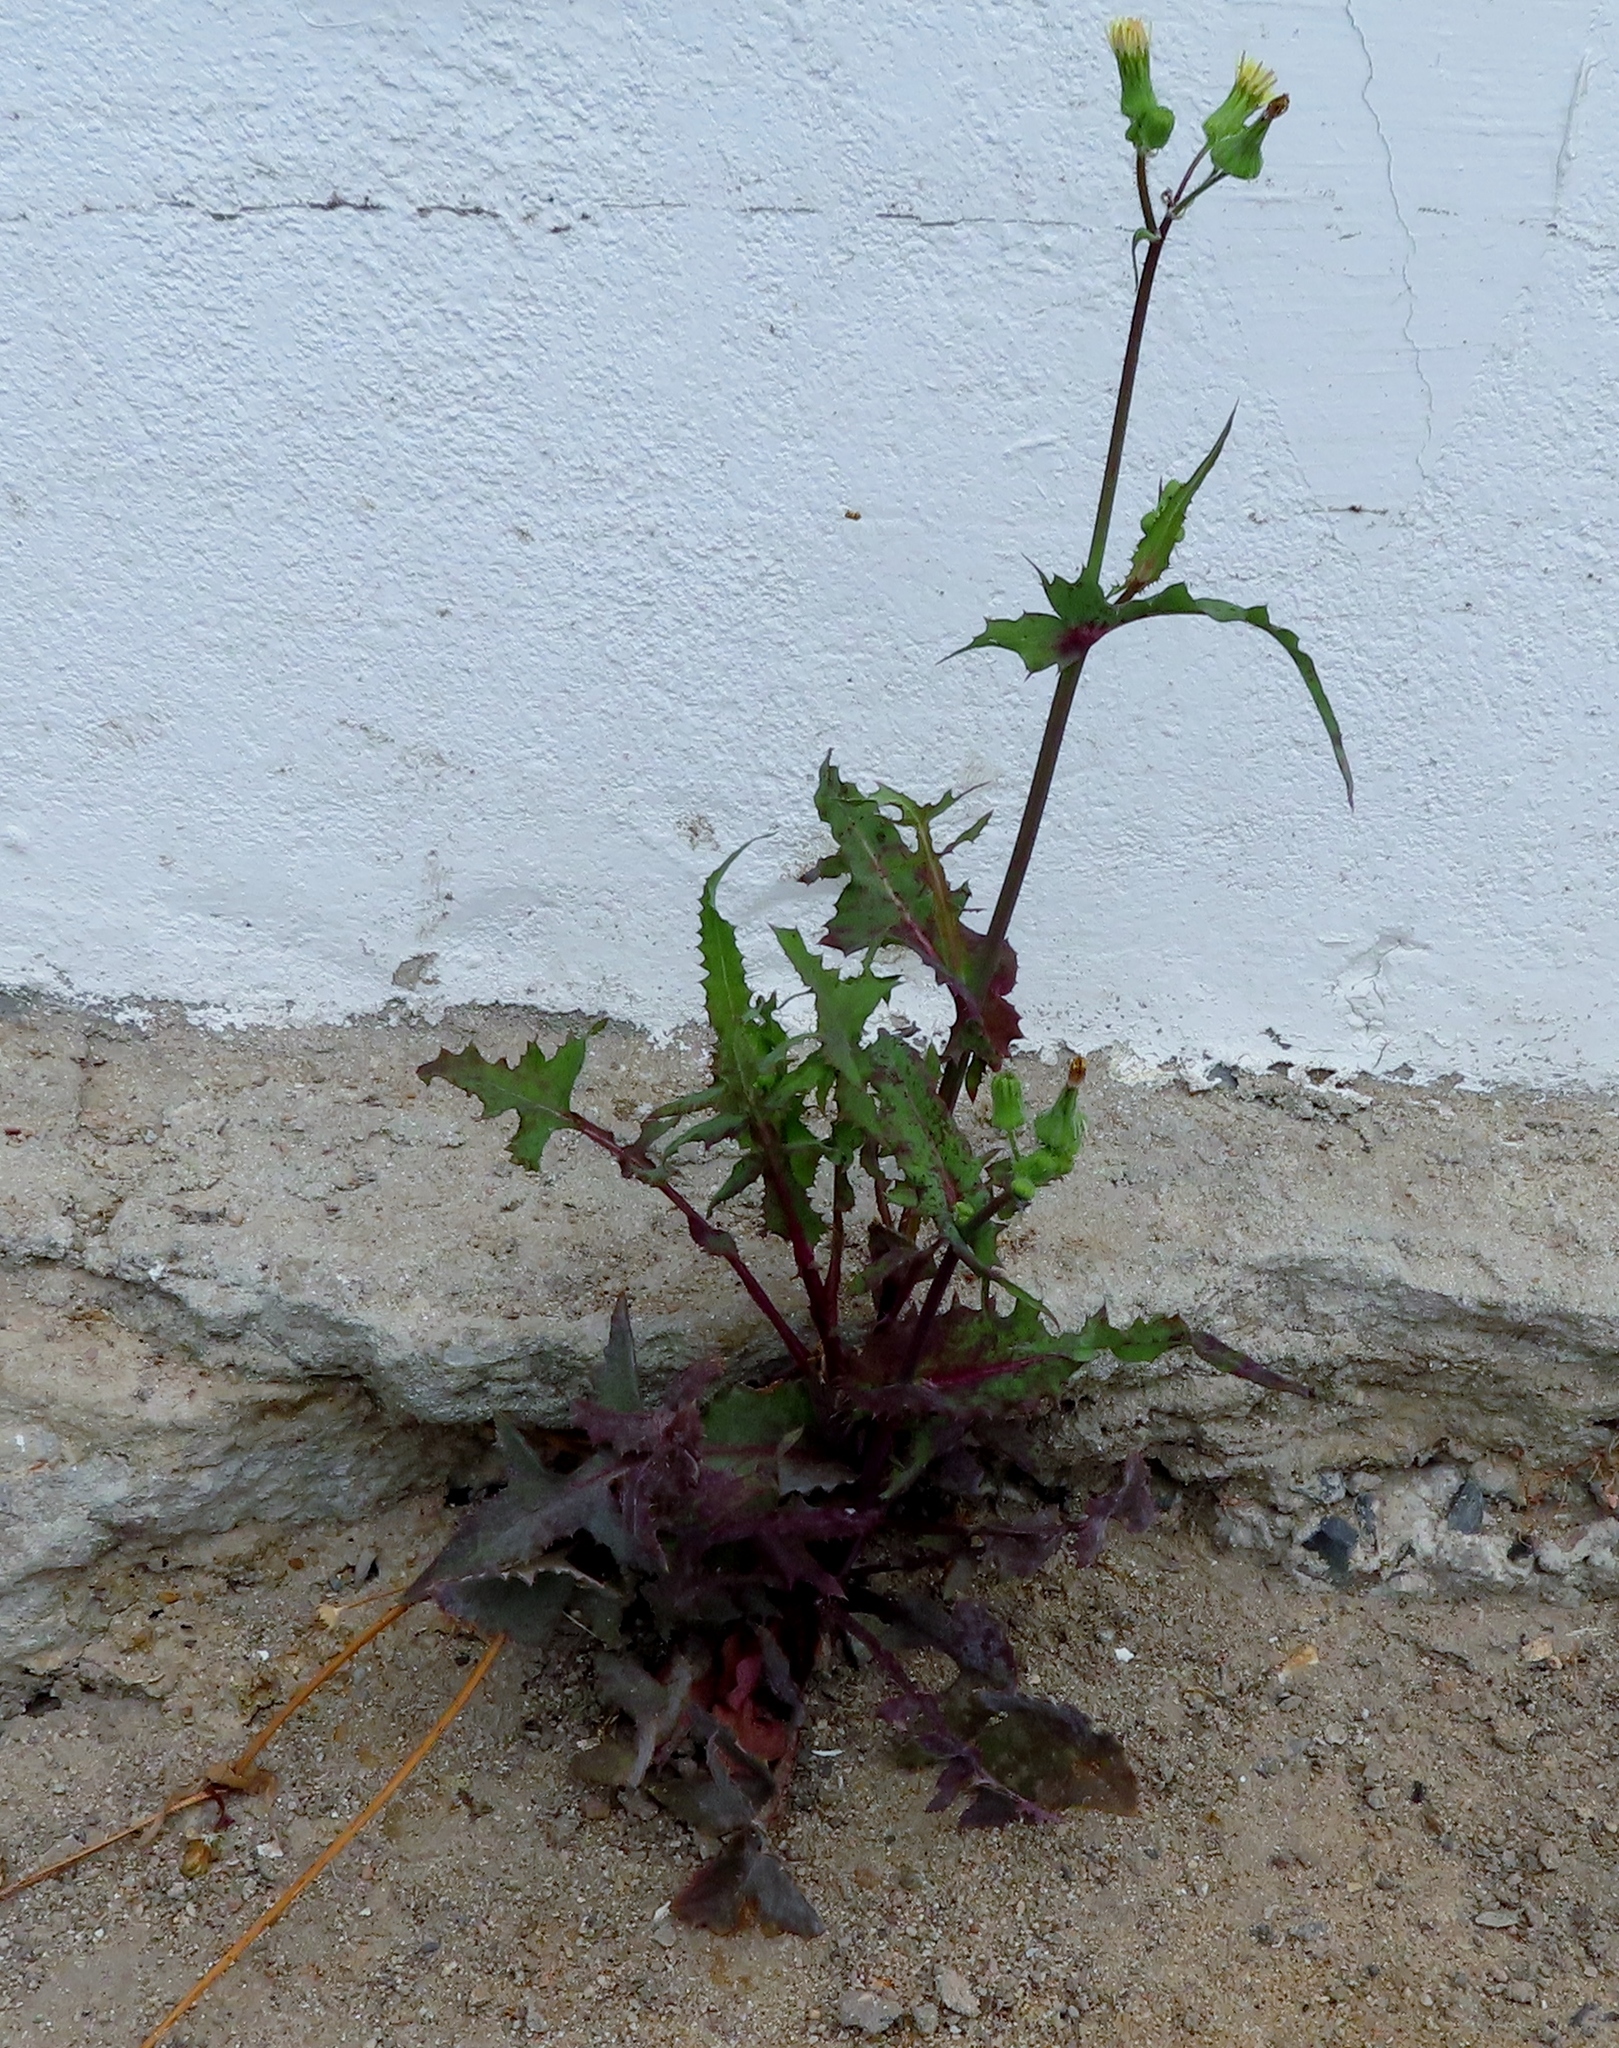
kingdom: Plantae
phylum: Tracheophyta
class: Magnoliopsida
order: Asterales
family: Asteraceae
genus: Sonchus
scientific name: Sonchus oleraceus
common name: Common sowthistle
